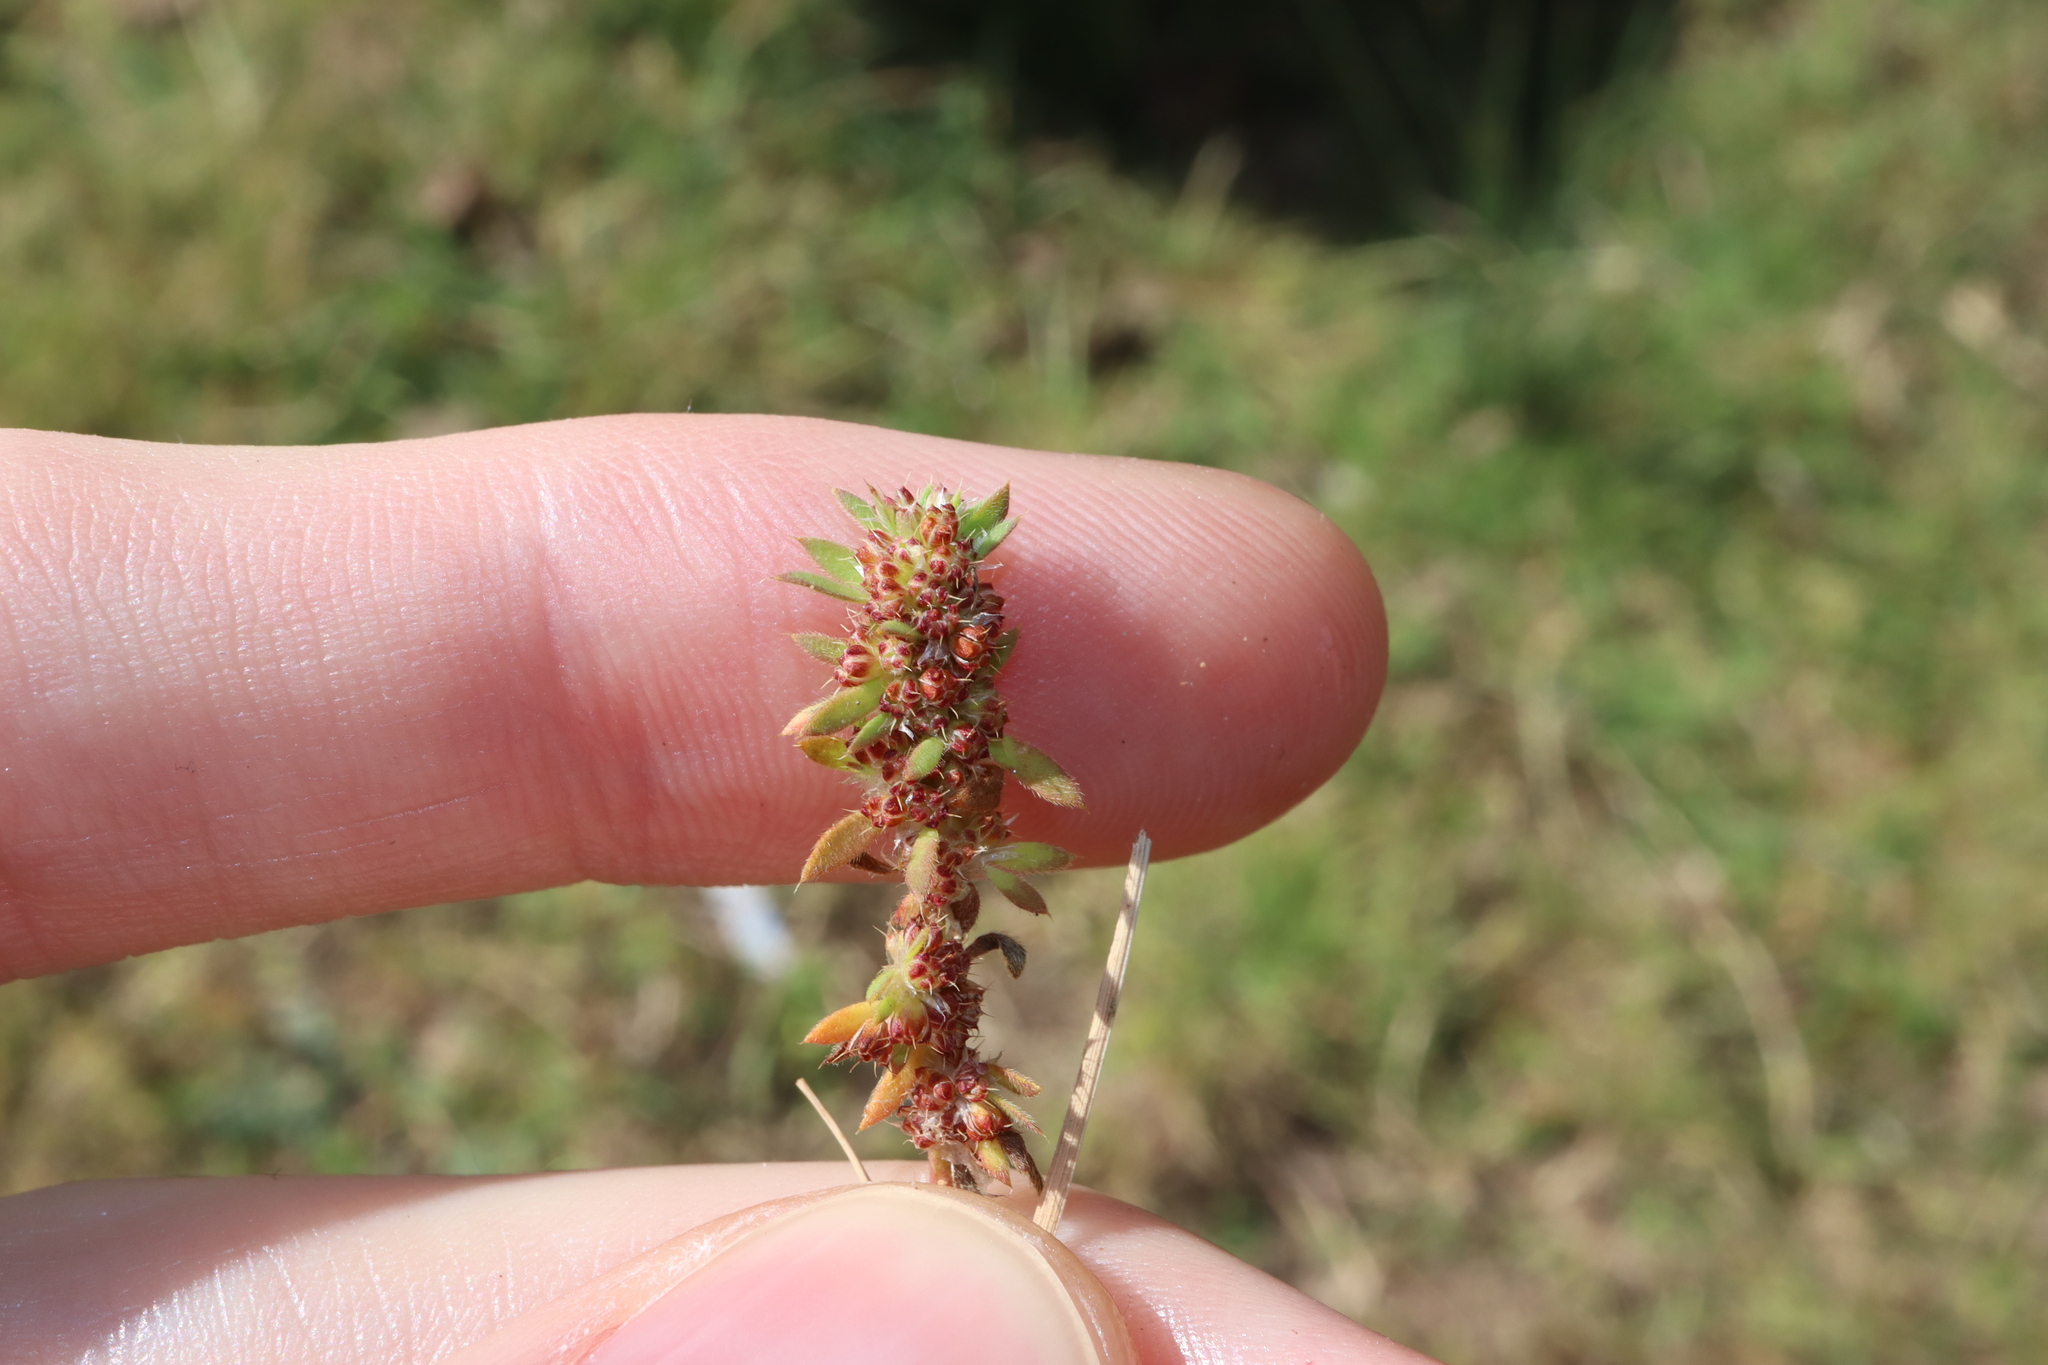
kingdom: Plantae
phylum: Tracheophyta
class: Magnoliopsida
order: Caryophyllales
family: Caryophyllaceae
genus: Paronychia
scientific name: Paronychia brasiliana
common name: Brazilian whitlow
